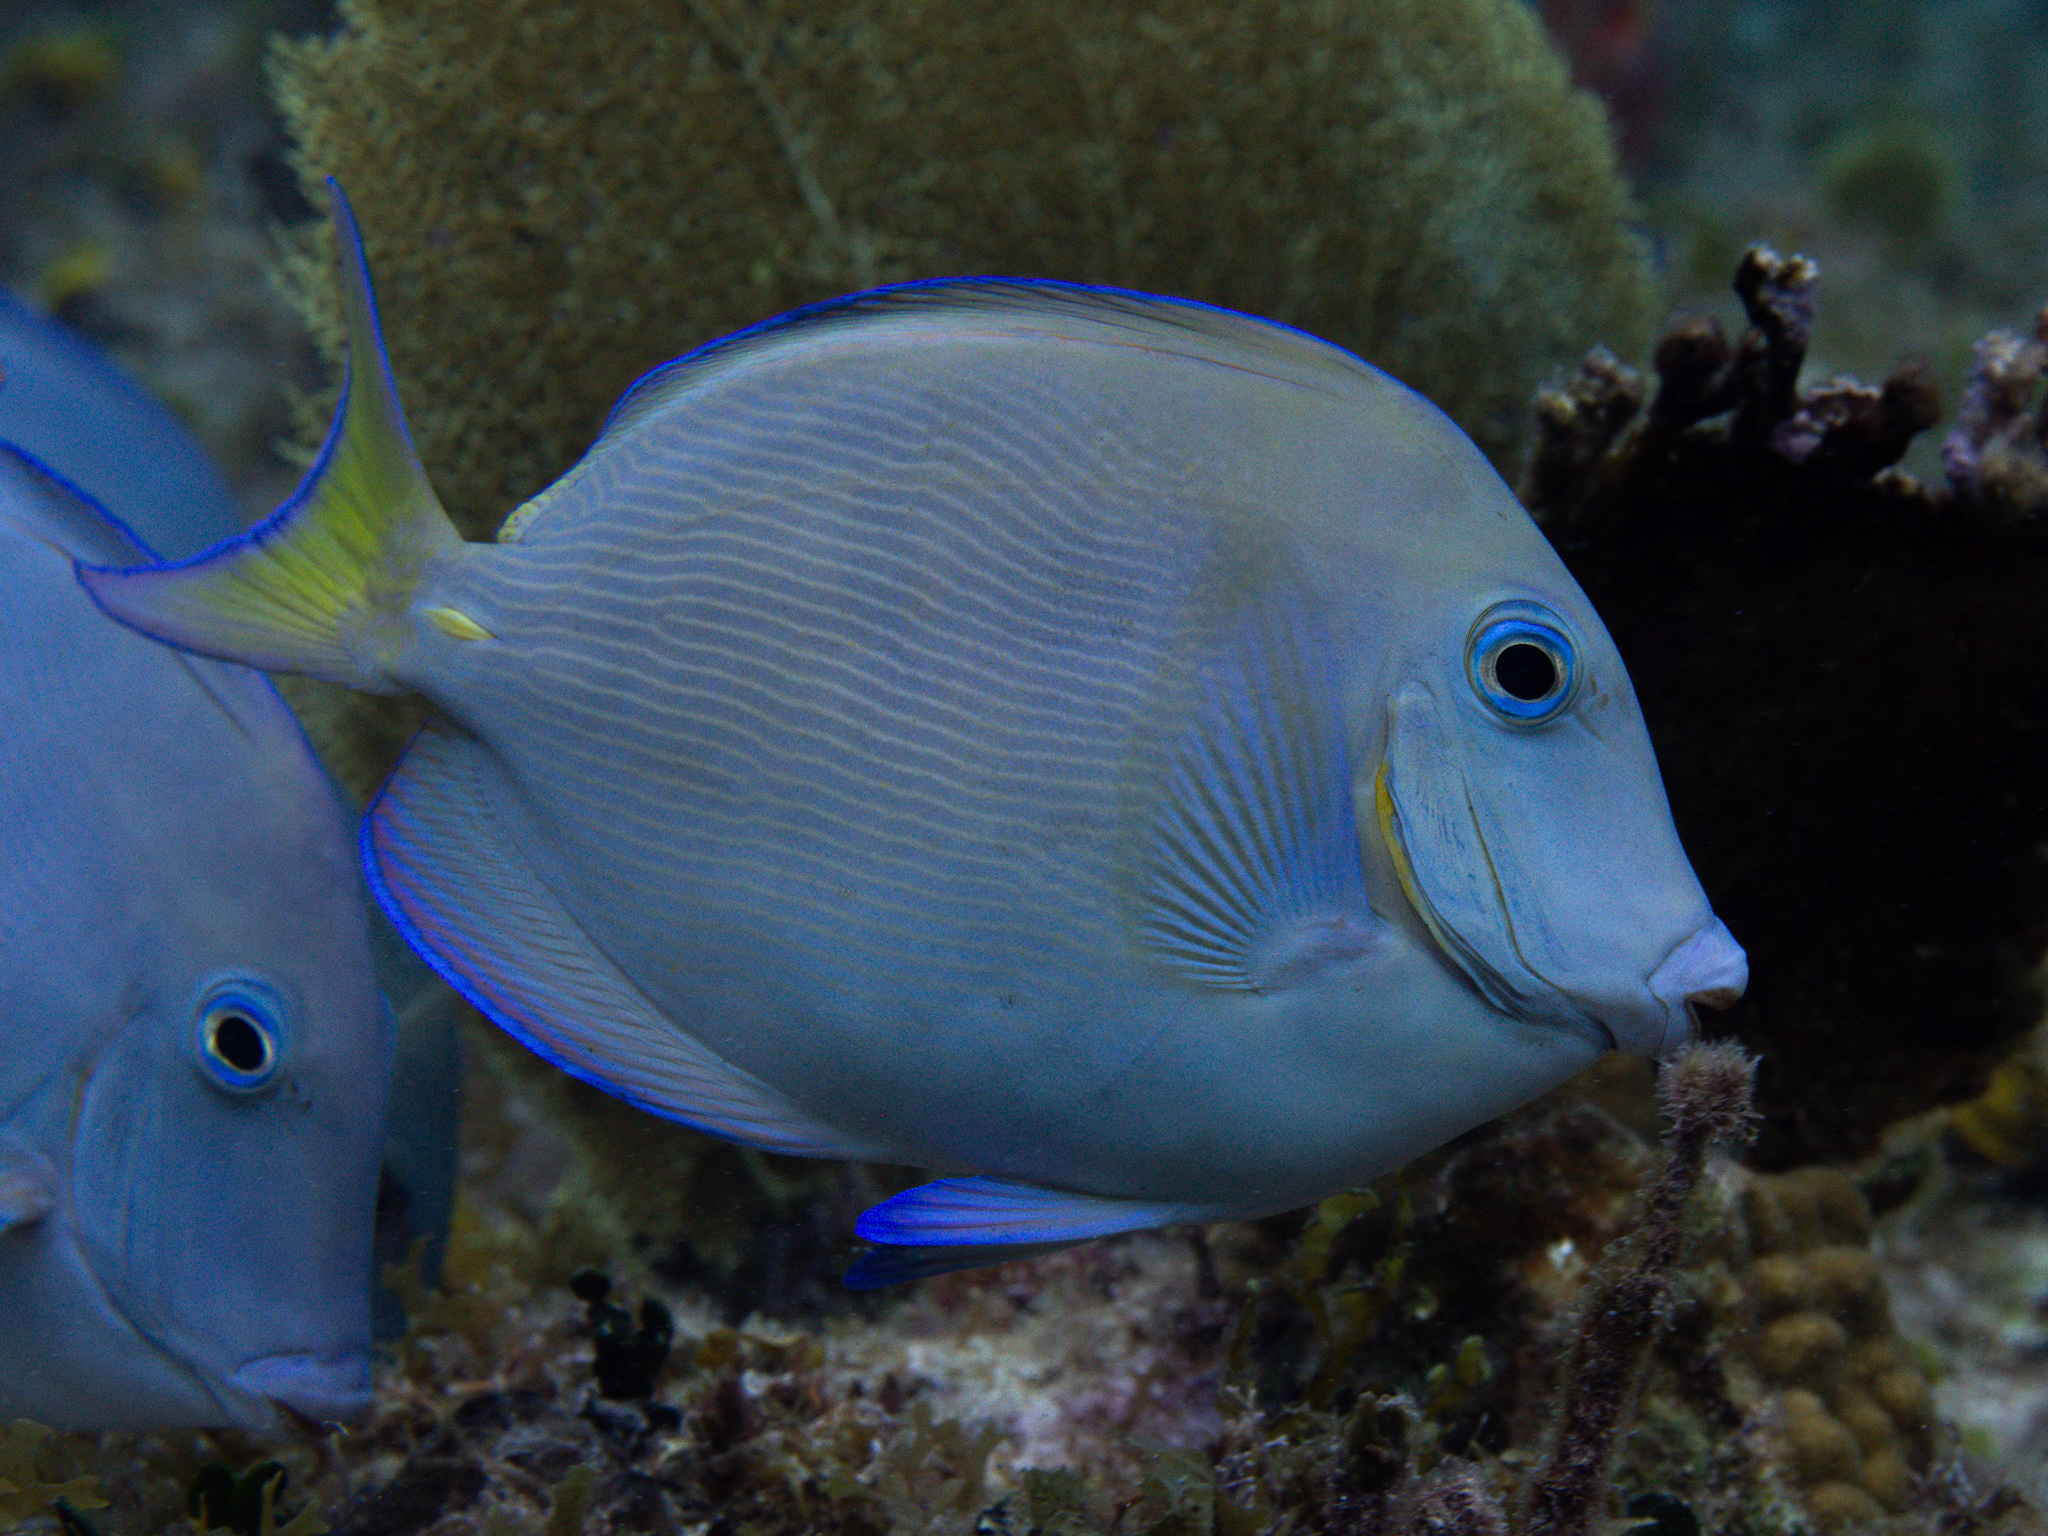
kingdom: Animalia
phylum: Chordata
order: Perciformes
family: Acanthuridae
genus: Acanthurus
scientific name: Acanthurus coeruleus
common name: Blue tang
